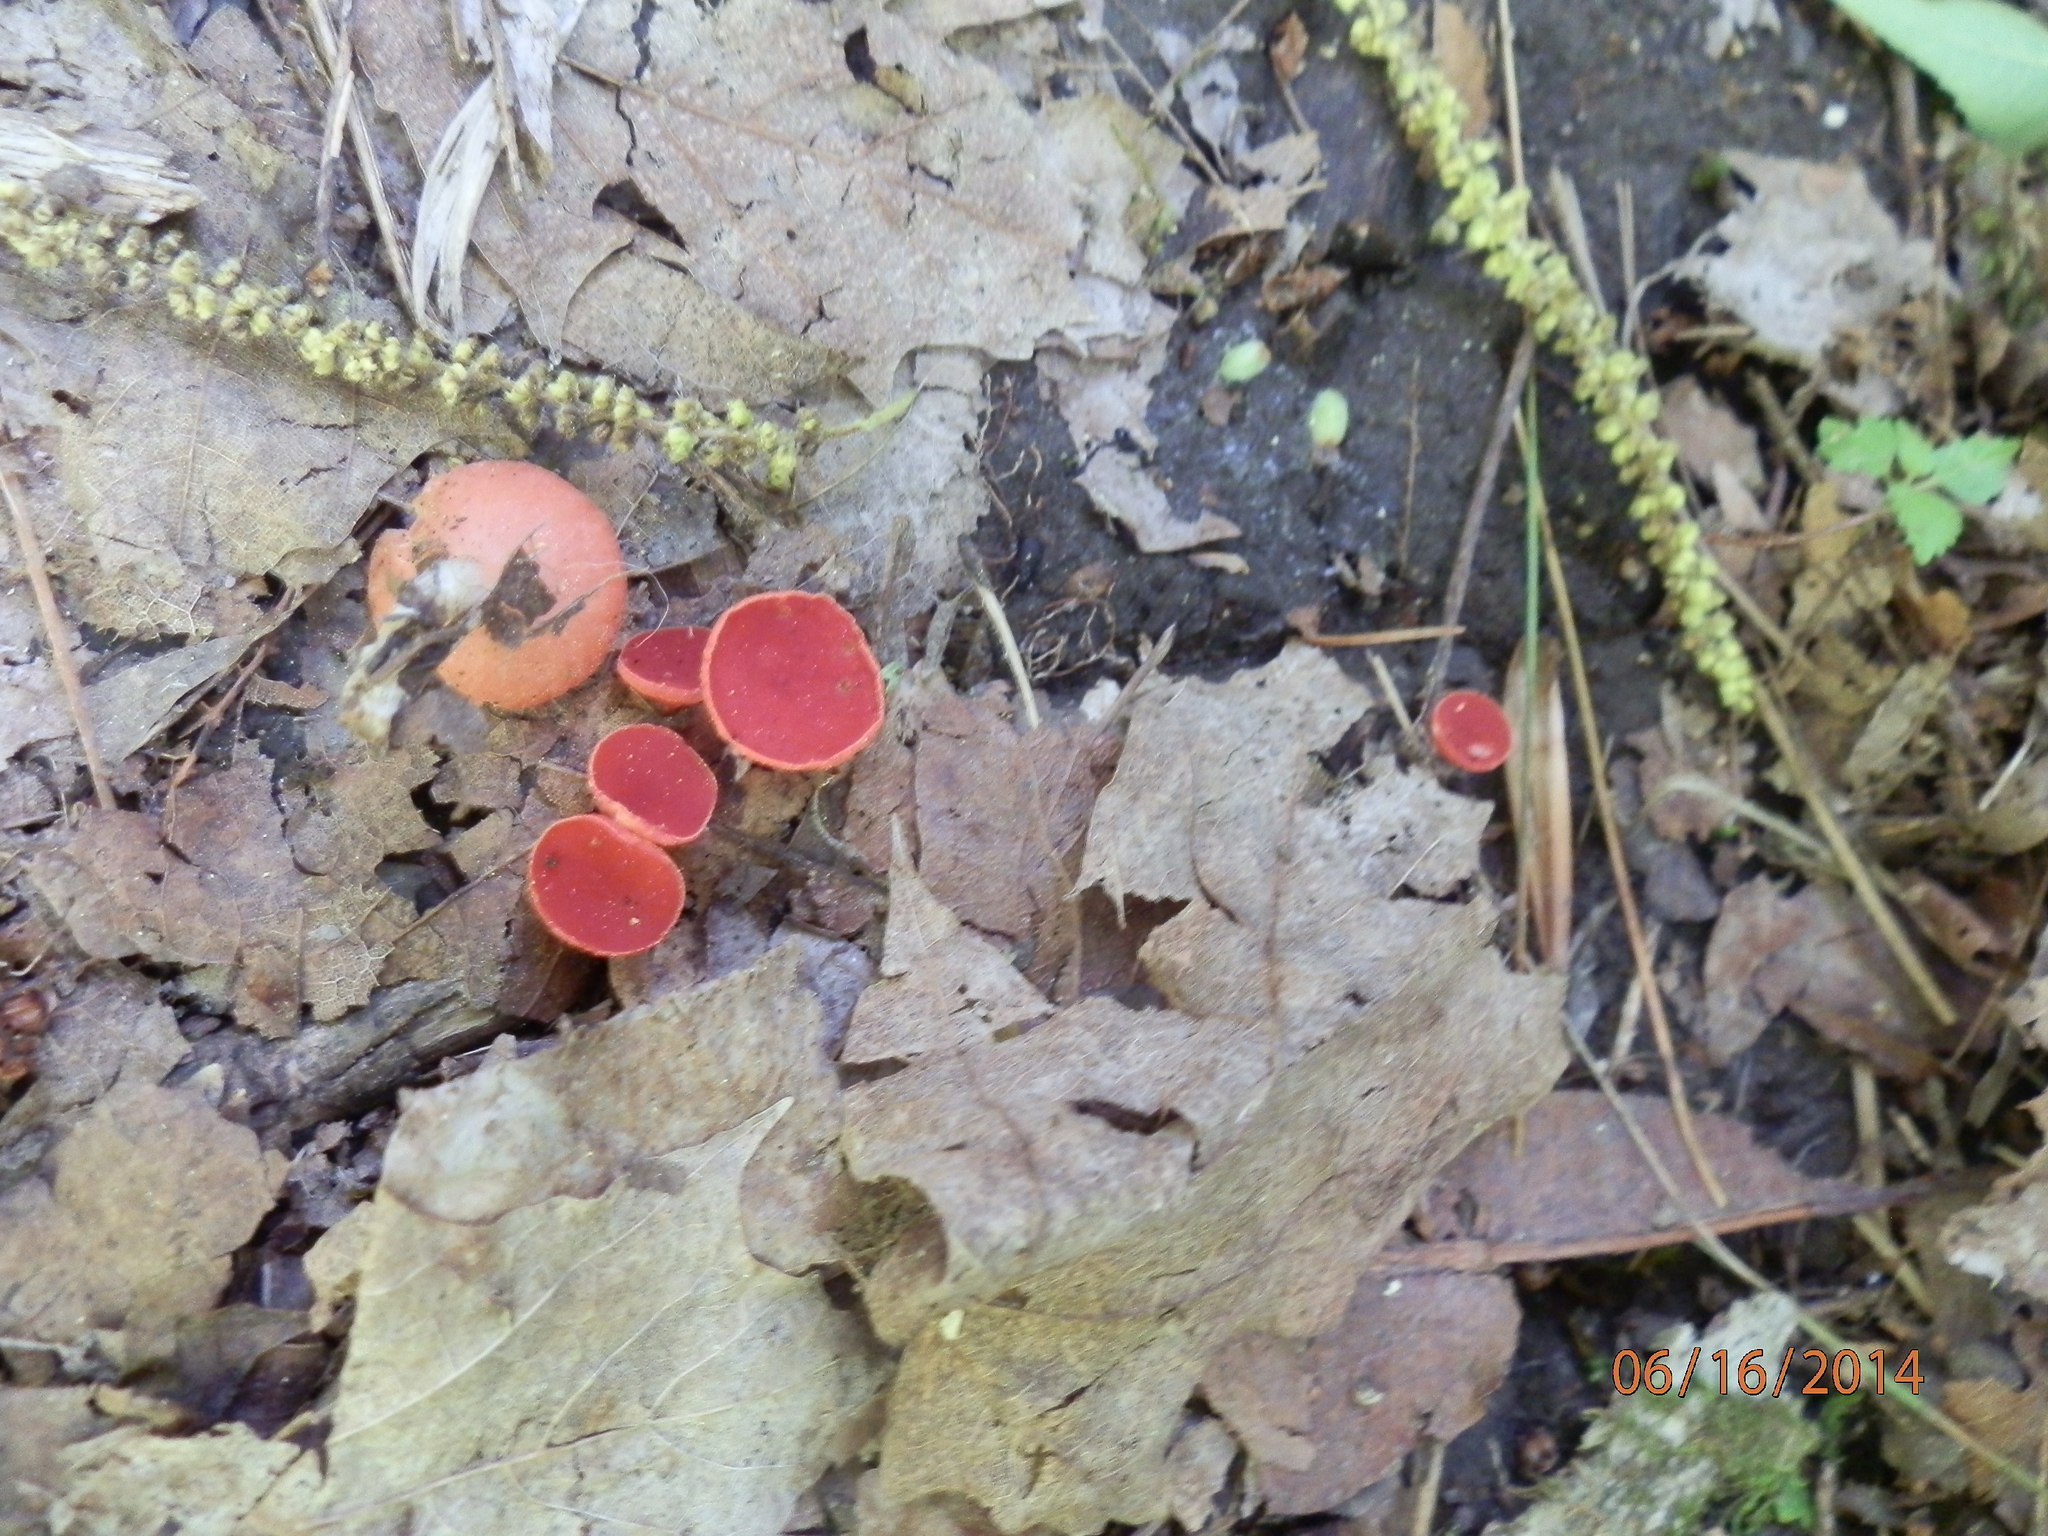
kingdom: Fungi
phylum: Ascomycota
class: Pezizomycetes
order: Pezizales
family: Sarcoscyphaceae
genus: Sarcoscypha
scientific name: Sarcoscypha occidentalis
